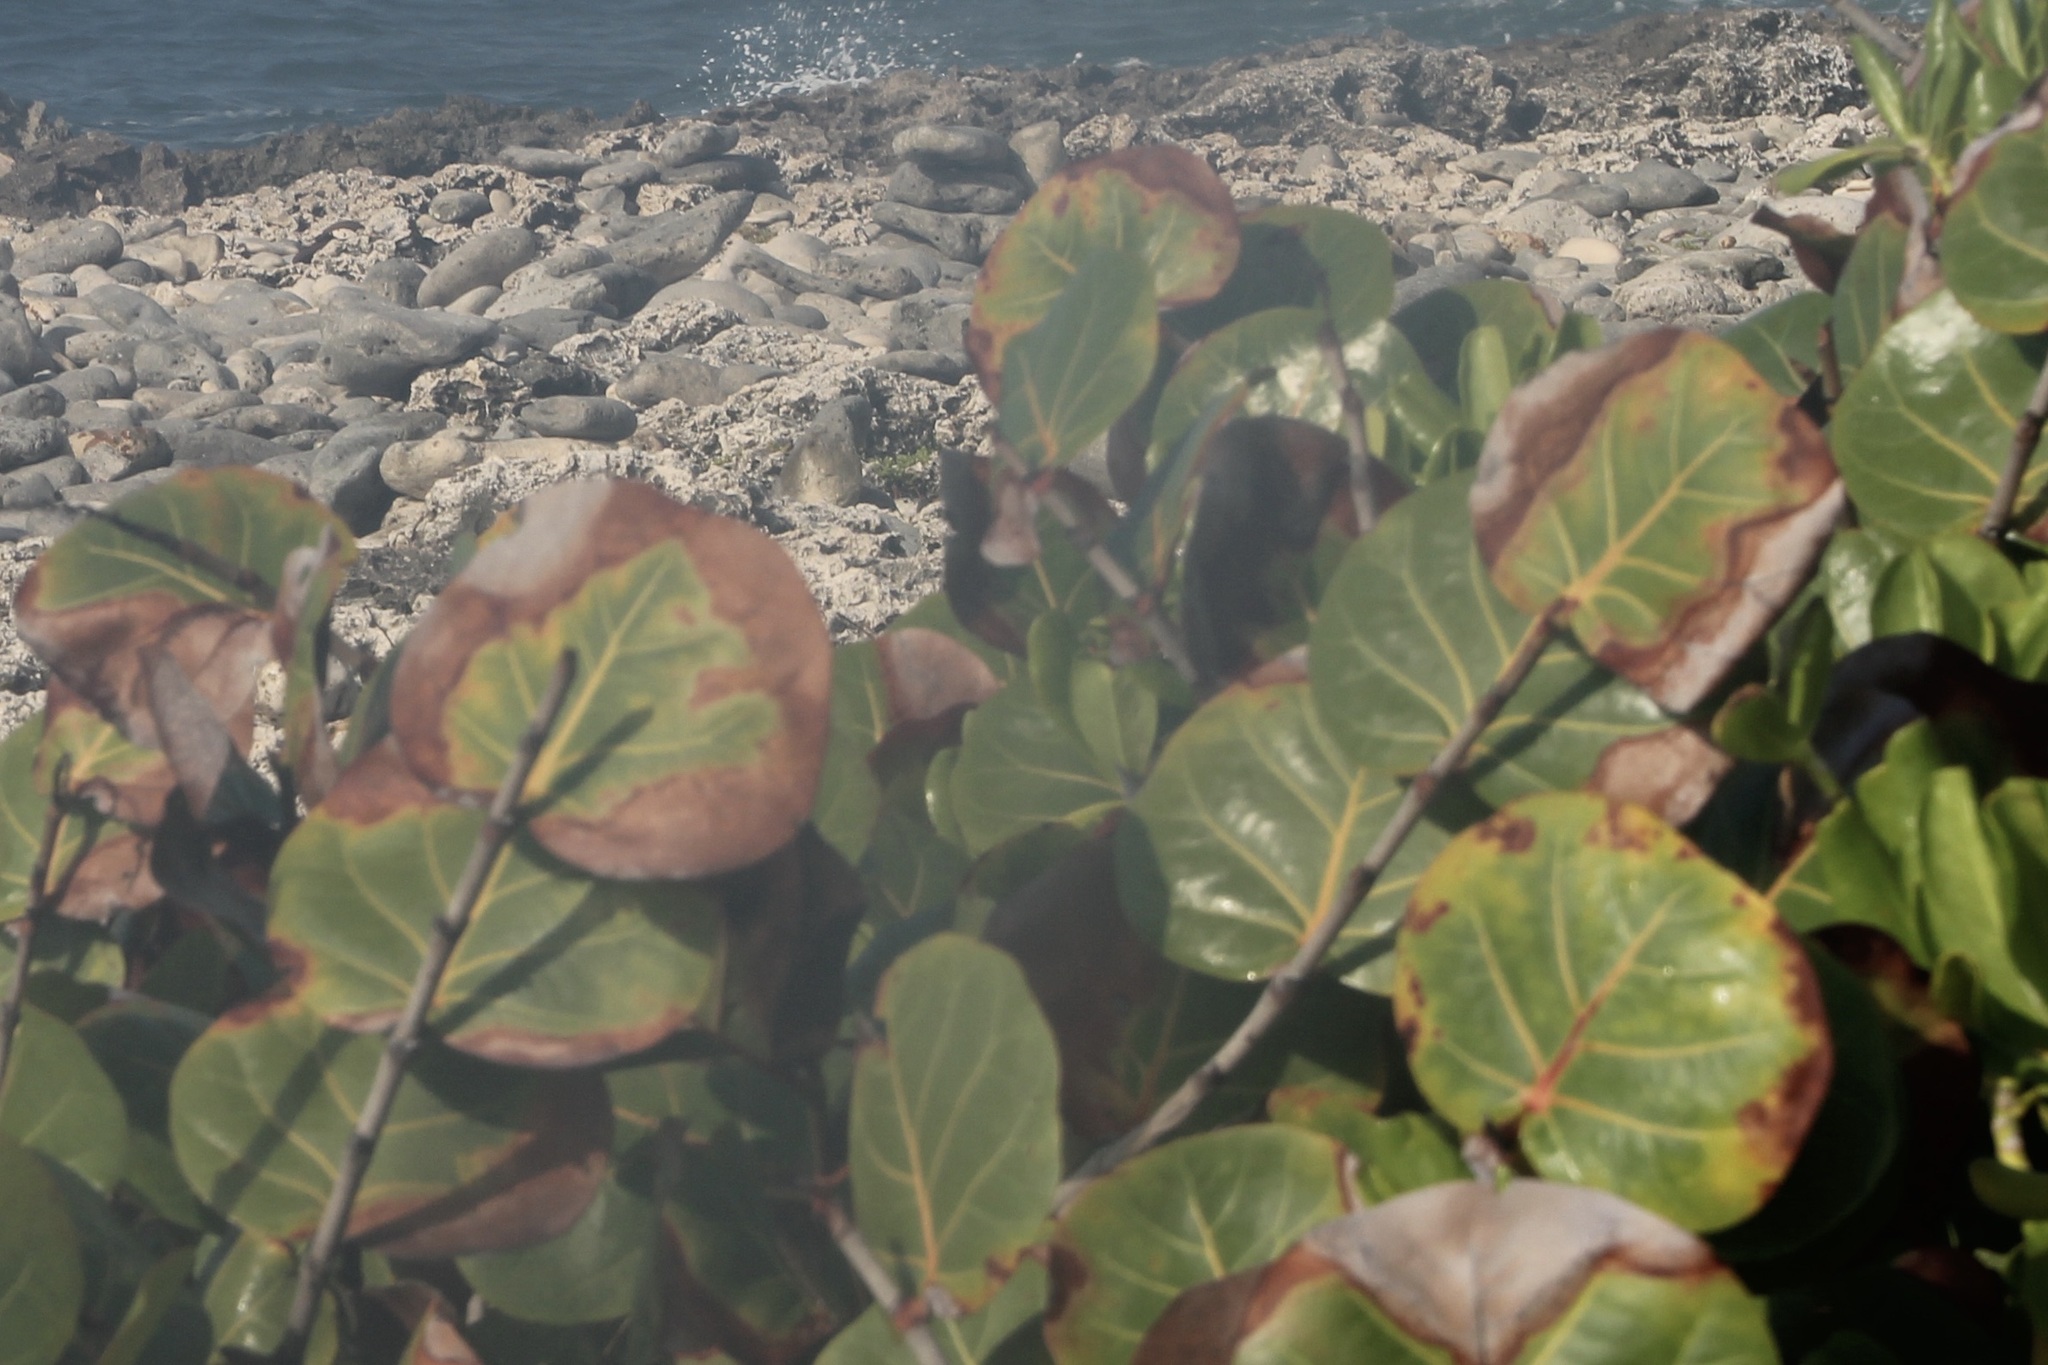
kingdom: Plantae
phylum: Tracheophyta
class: Magnoliopsida
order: Caryophyllales
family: Polygonaceae
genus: Coccoloba
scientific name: Coccoloba uvifera
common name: Seagrape
